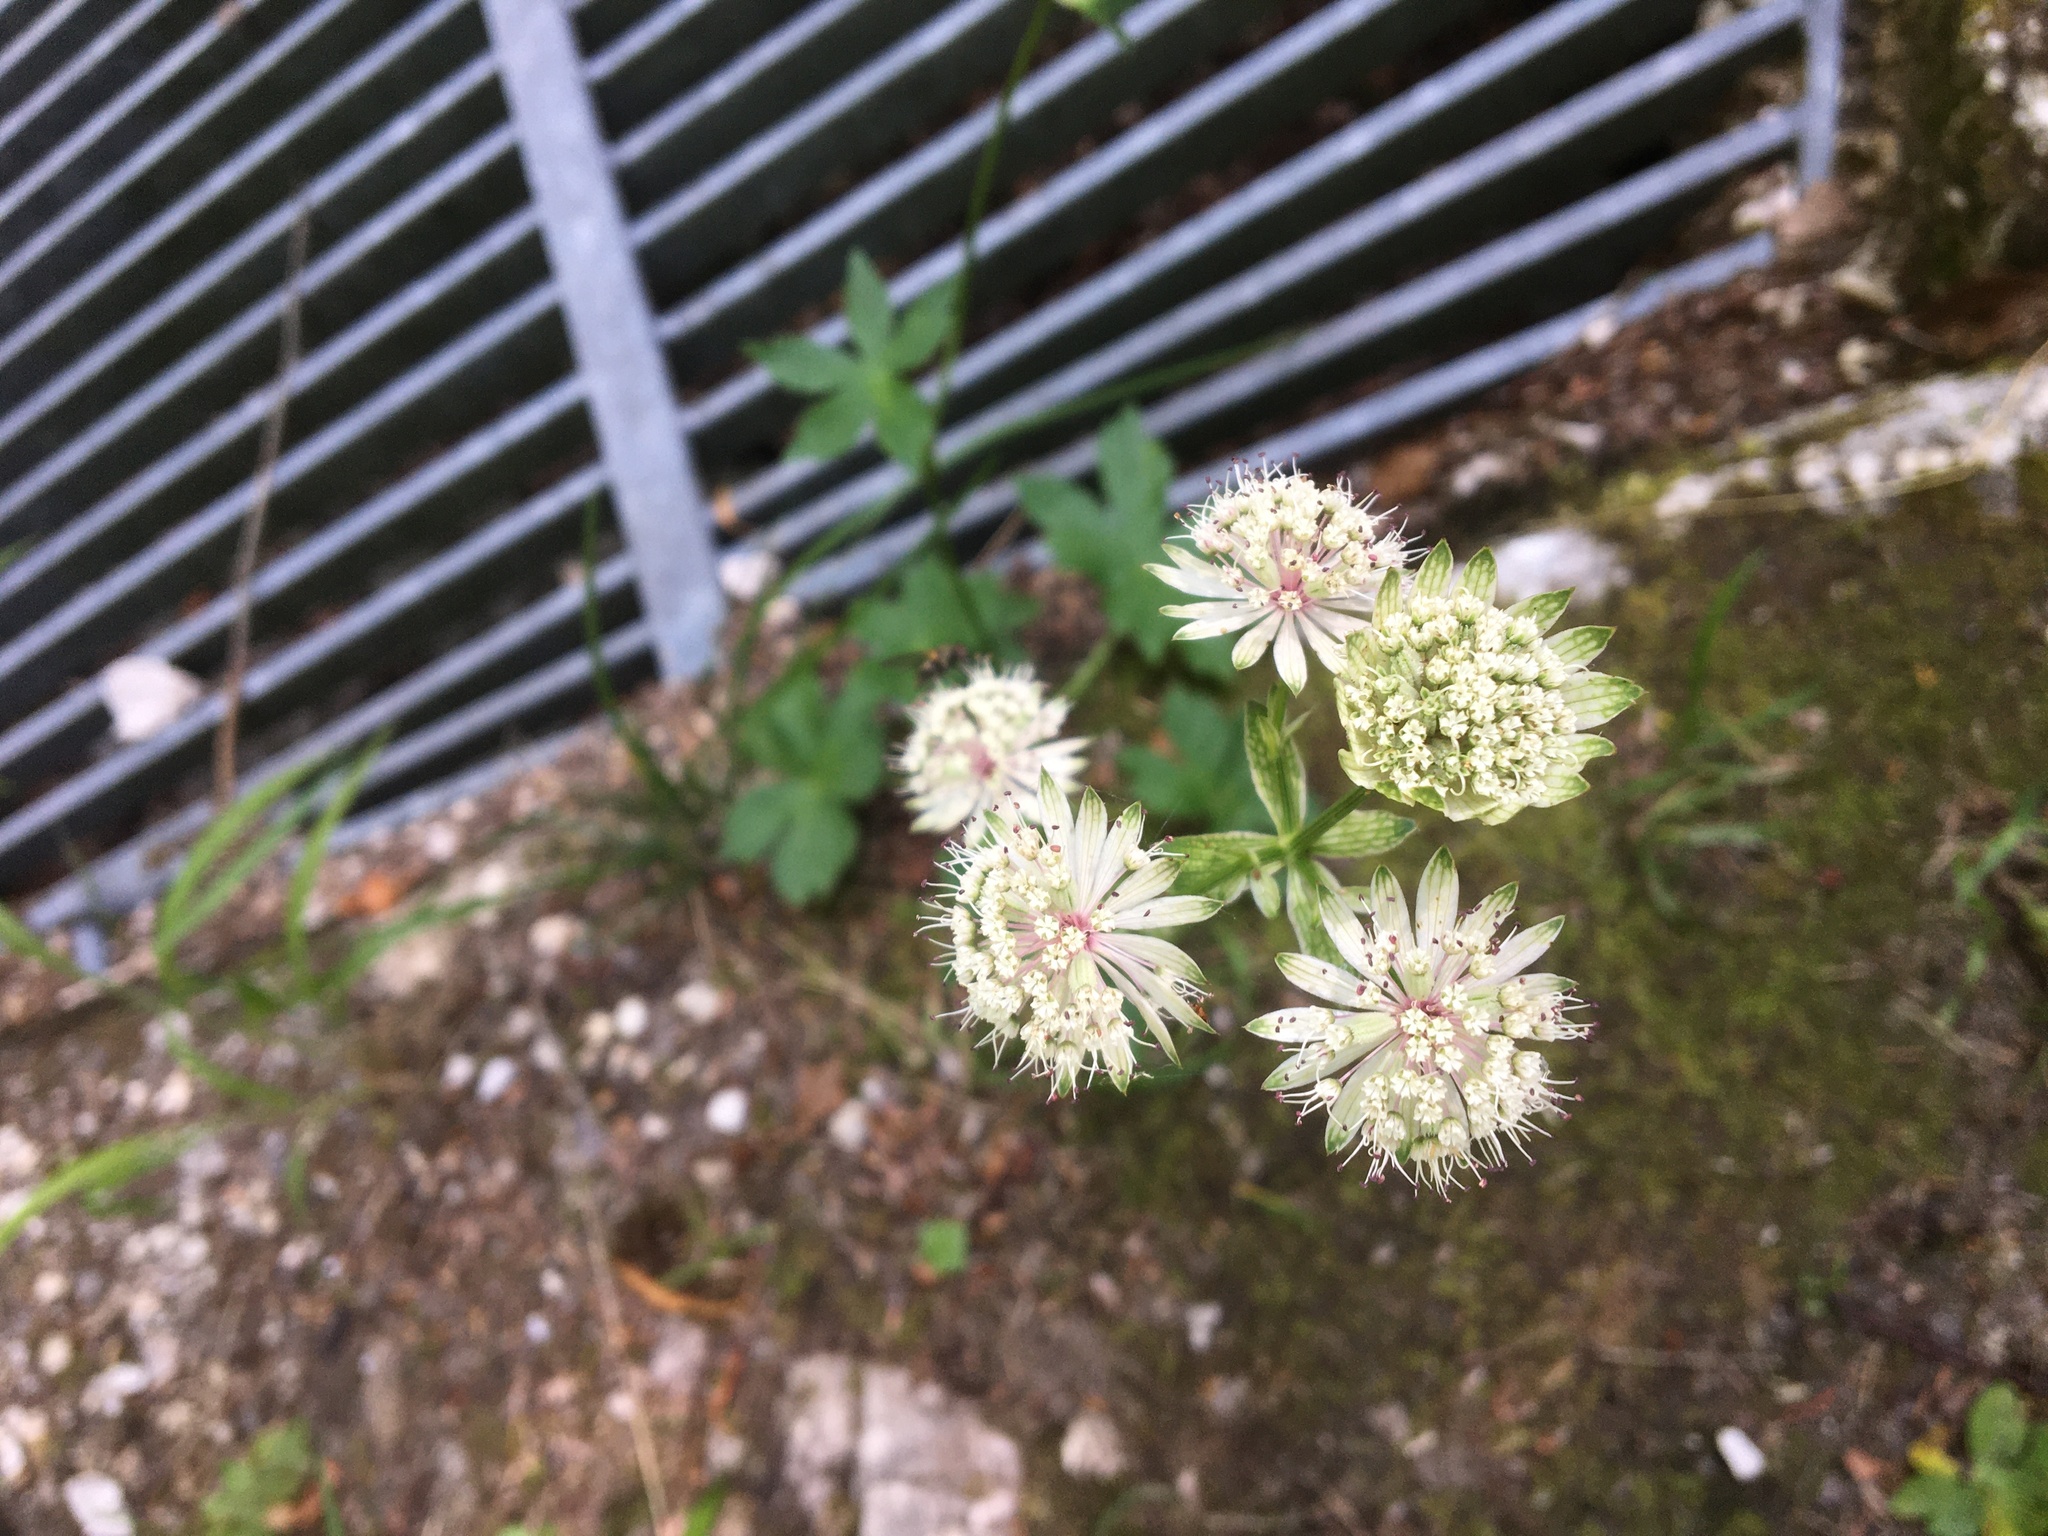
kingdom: Plantae
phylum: Tracheophyta
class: Magnoliopsida
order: Apiales
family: Apiaceae
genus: Astrantia
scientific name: Astrantia major
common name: Greater masterwort
